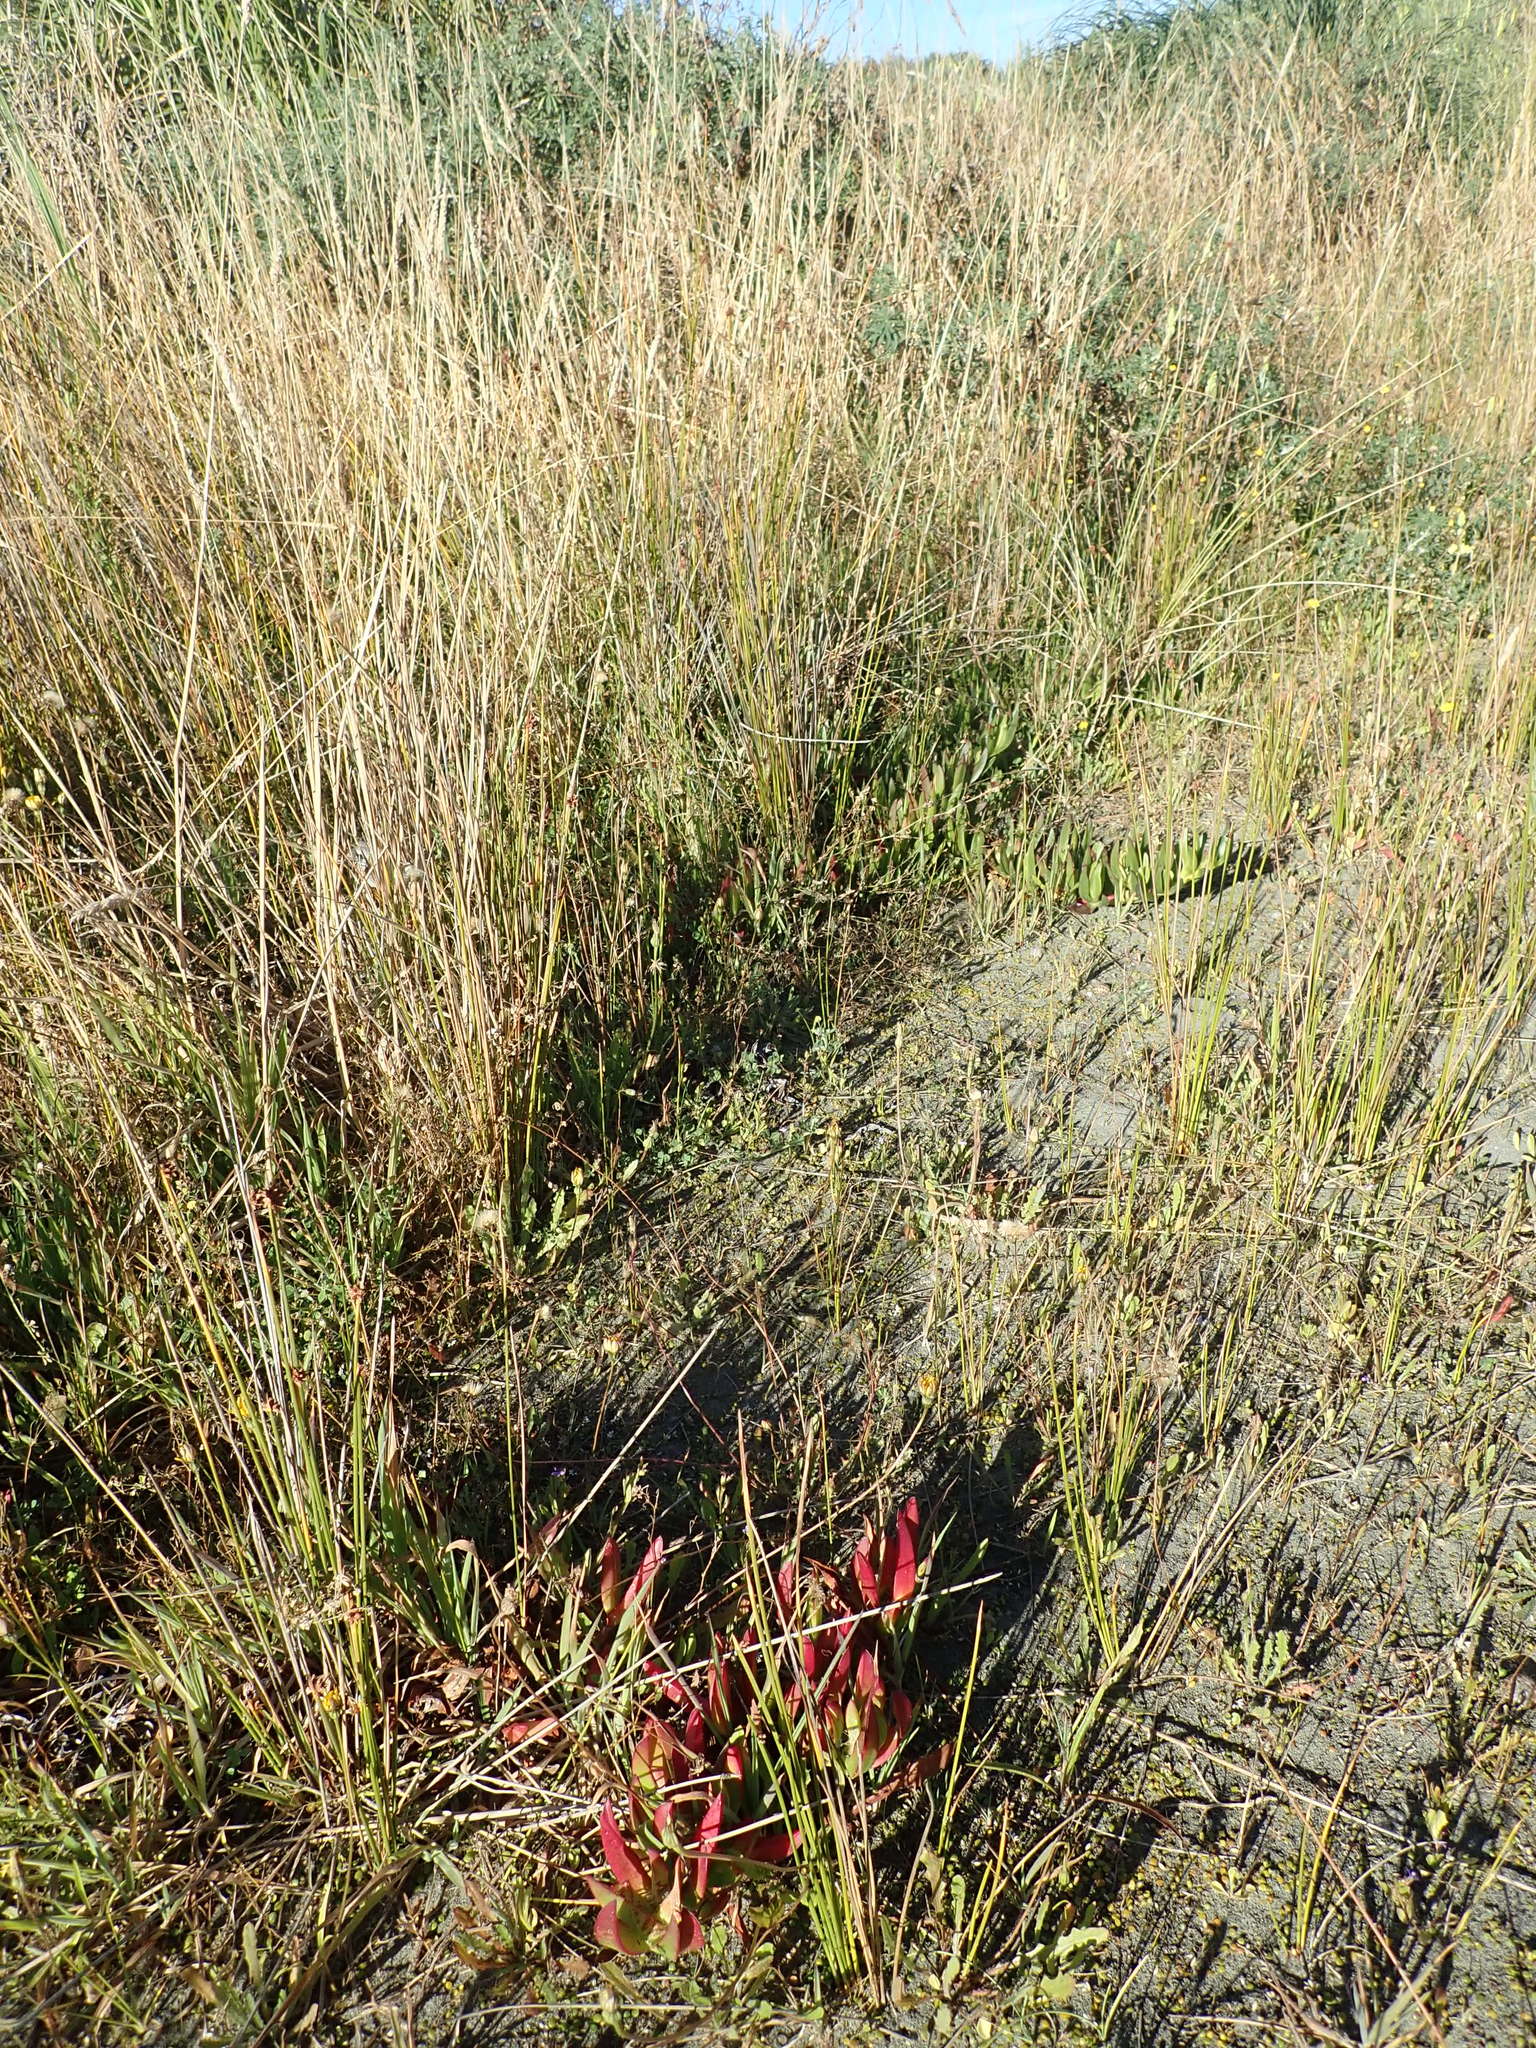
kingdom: Plantae
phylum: Tracheophyta
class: Magnoliopsida
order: Caryophyllales
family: Aizoaceae
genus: Carpobrotus
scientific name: Carpobrotus
